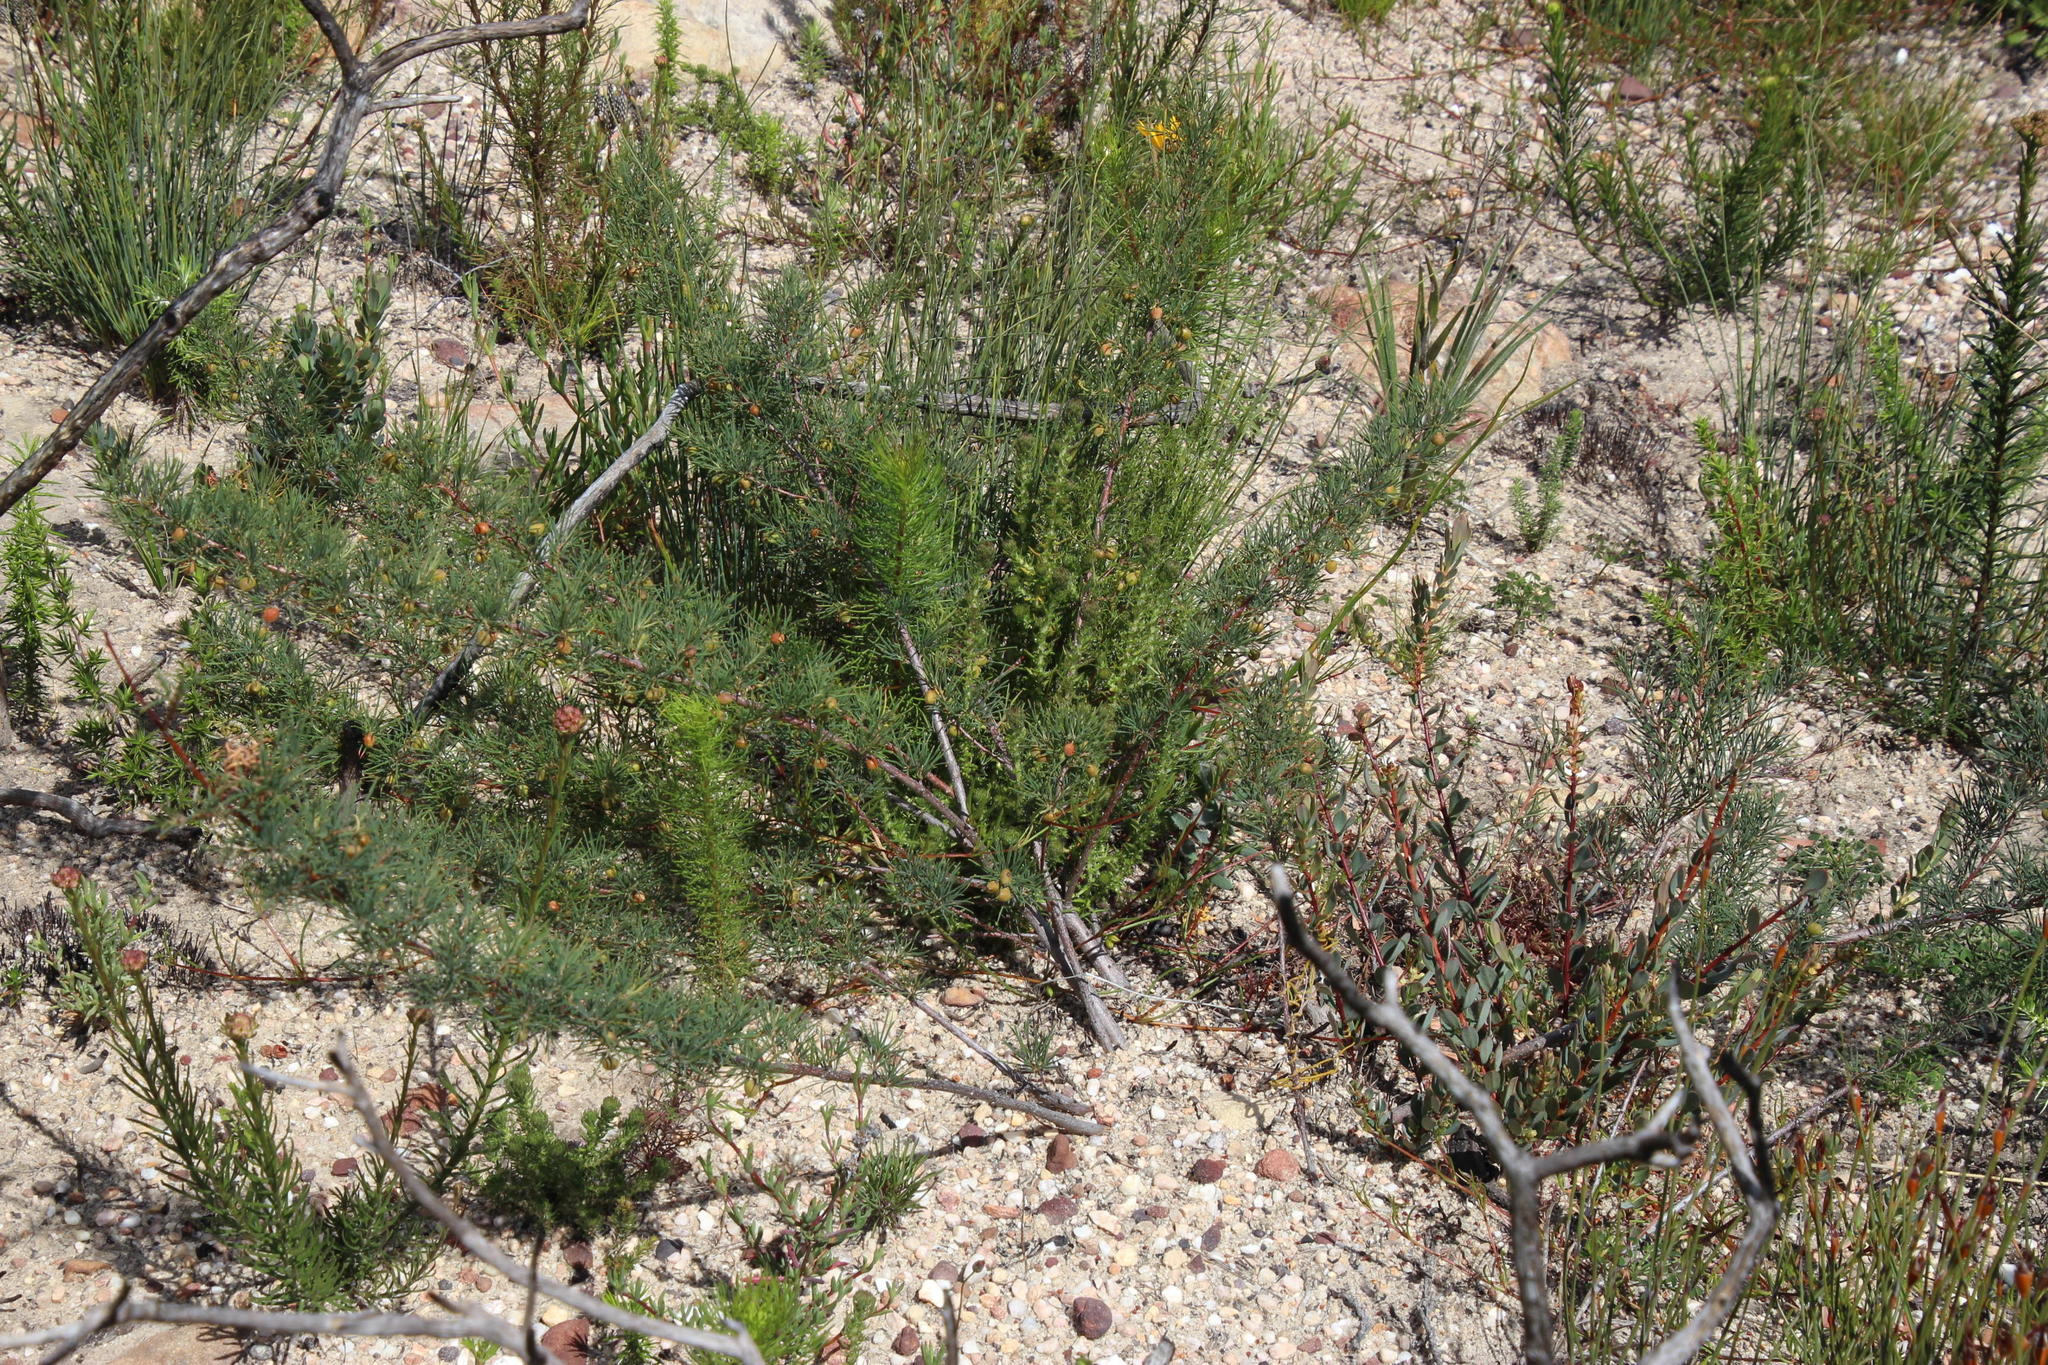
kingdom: Plantae
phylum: Tracheophyta
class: Magnoliopsida
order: Sapindales
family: Anacardiaceae
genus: Searsia
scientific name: Searsia rosmarinifolia
